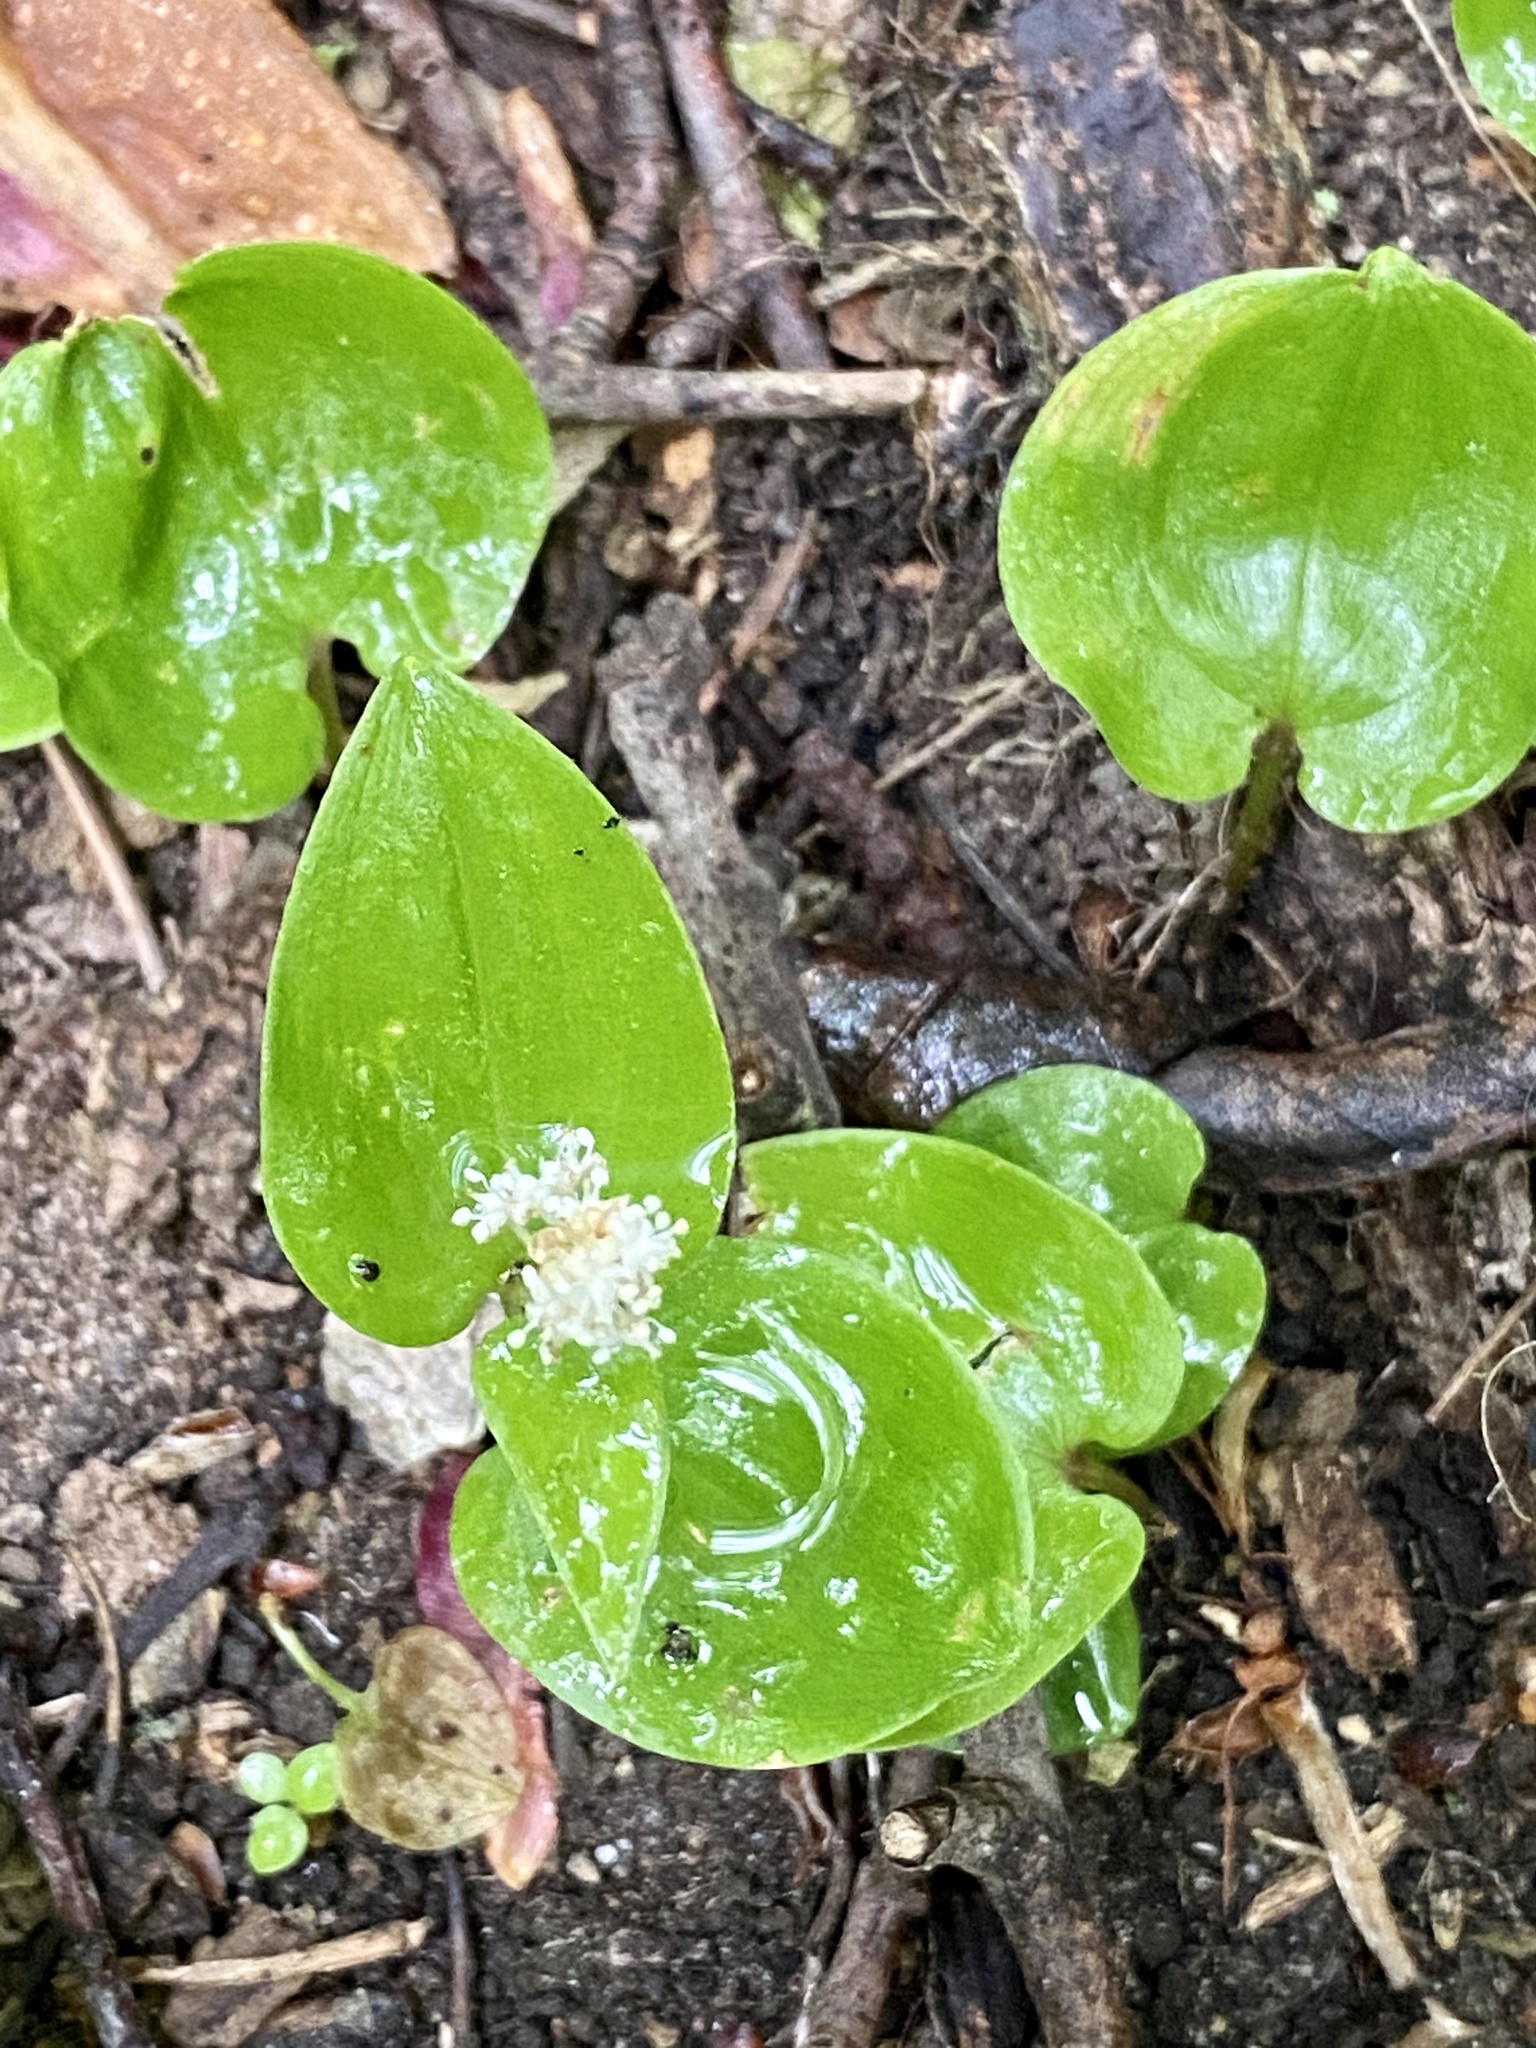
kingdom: Plantae
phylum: Tracheophyta
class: Liliopsida
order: Asparagales
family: Asparagaceae
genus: Maianthemum
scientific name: Maianthemum canadense
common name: False lily-of-the-valley
